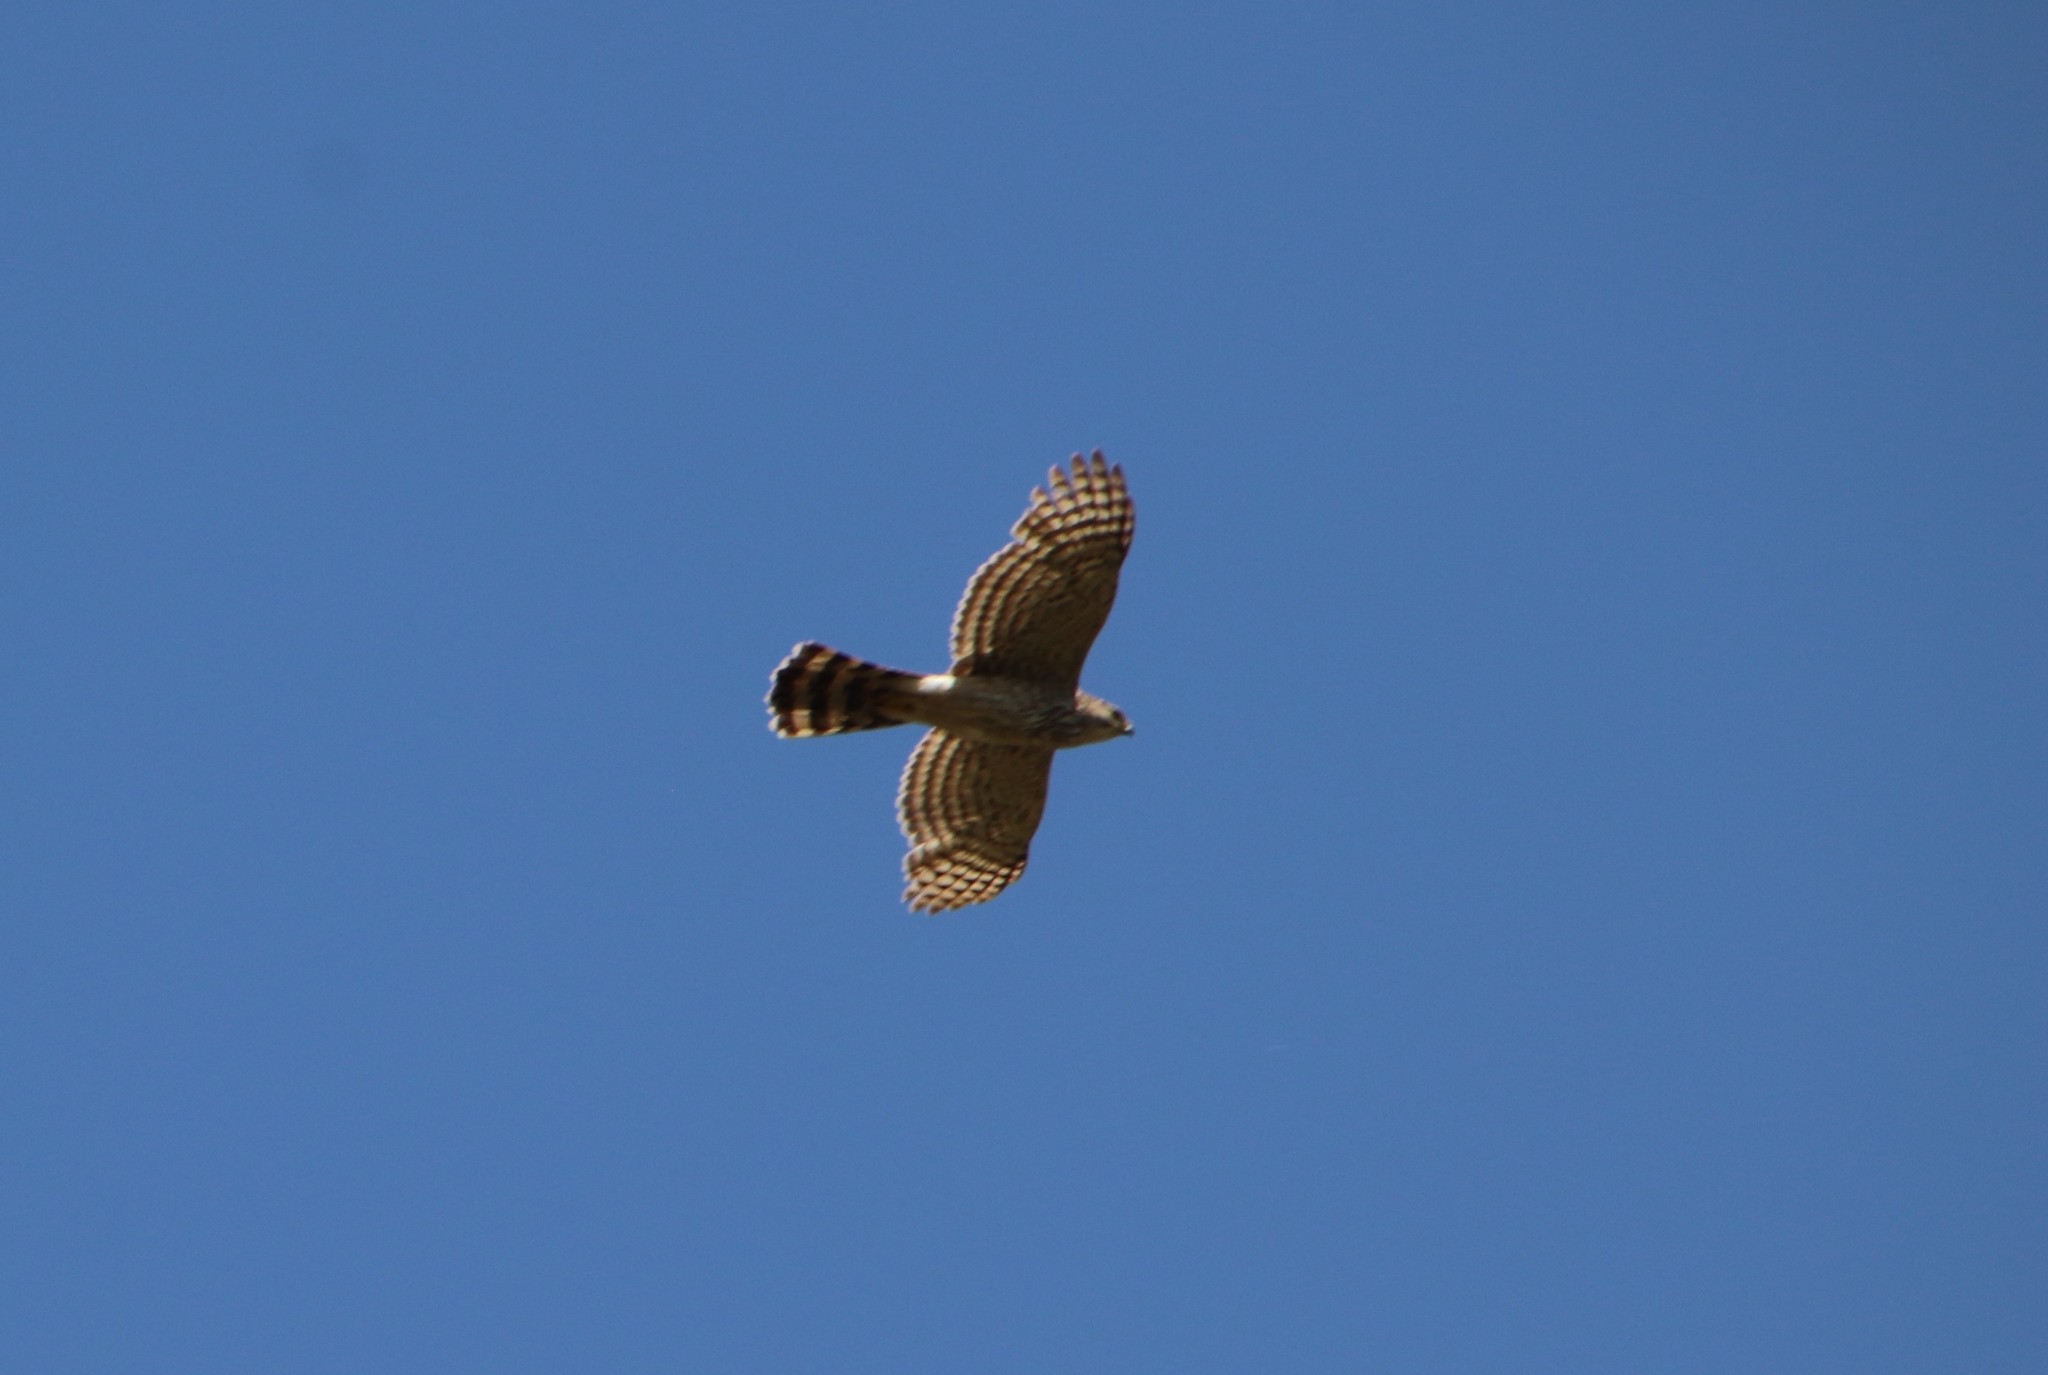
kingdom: Animalia
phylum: Chordata
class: Aves
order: Accipitriformes
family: Accipitridae
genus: Accipiter
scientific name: Accipiter cooperii
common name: Cooper's hawk
